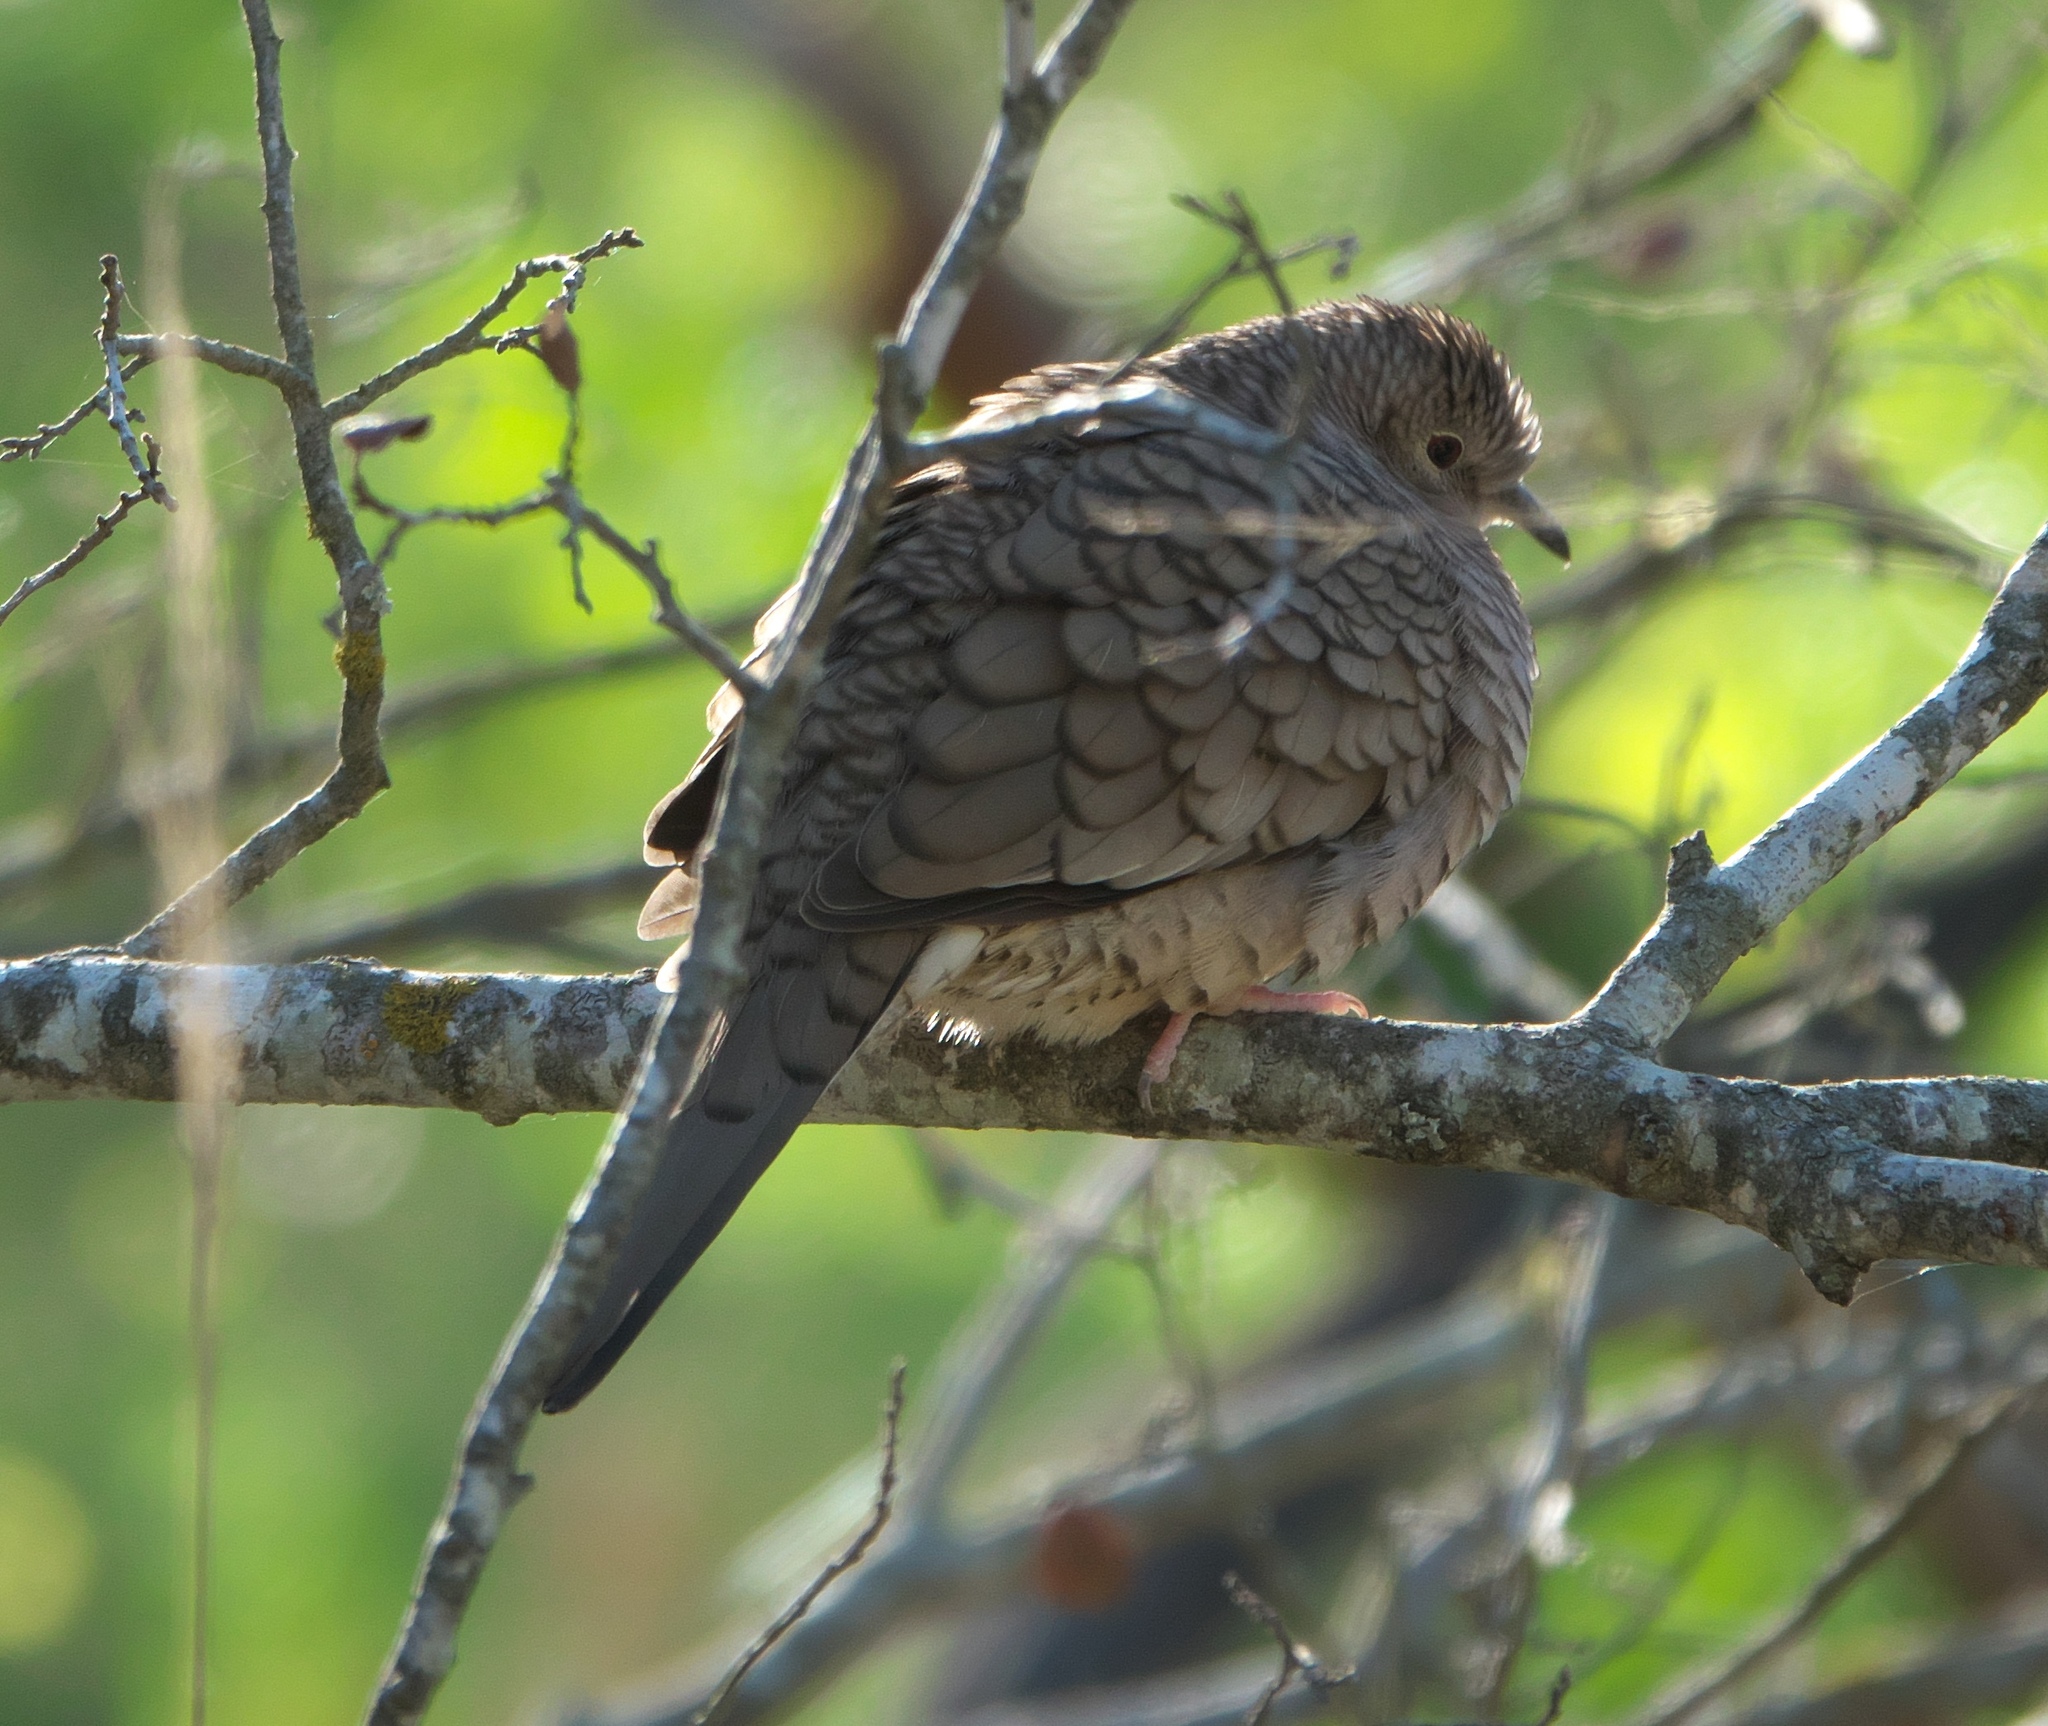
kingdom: Animalia
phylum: Chordata
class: Aves
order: Columbiformes
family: Columbidae
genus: Columbina
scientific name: Columbina inca
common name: Inca dove
